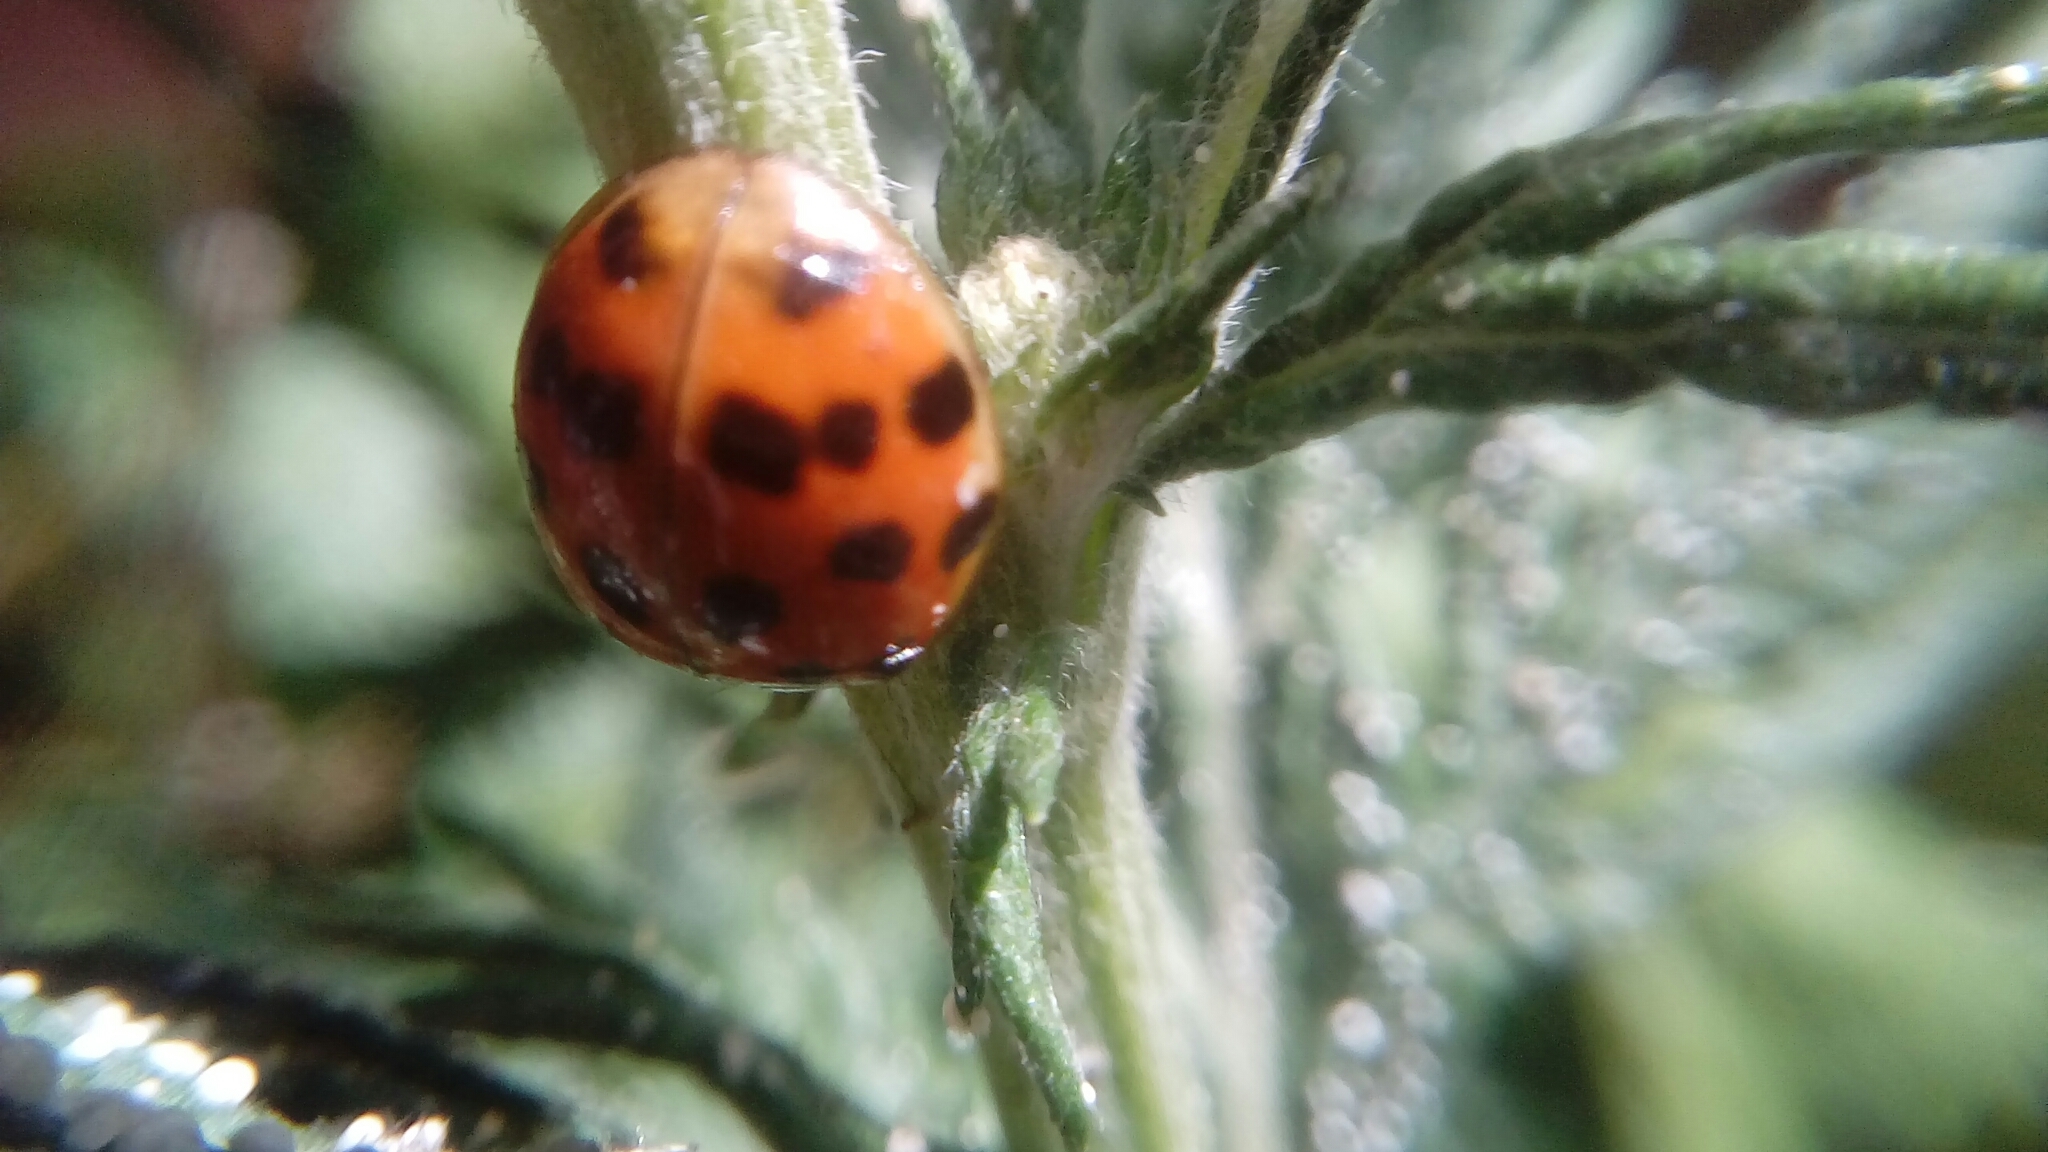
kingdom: Animalia
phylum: Arthropoda
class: Insecta
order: Coleoptera
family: Coccinellidae
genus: Harmonia
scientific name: Harmonia axyridis
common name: Harlequin ladybird
